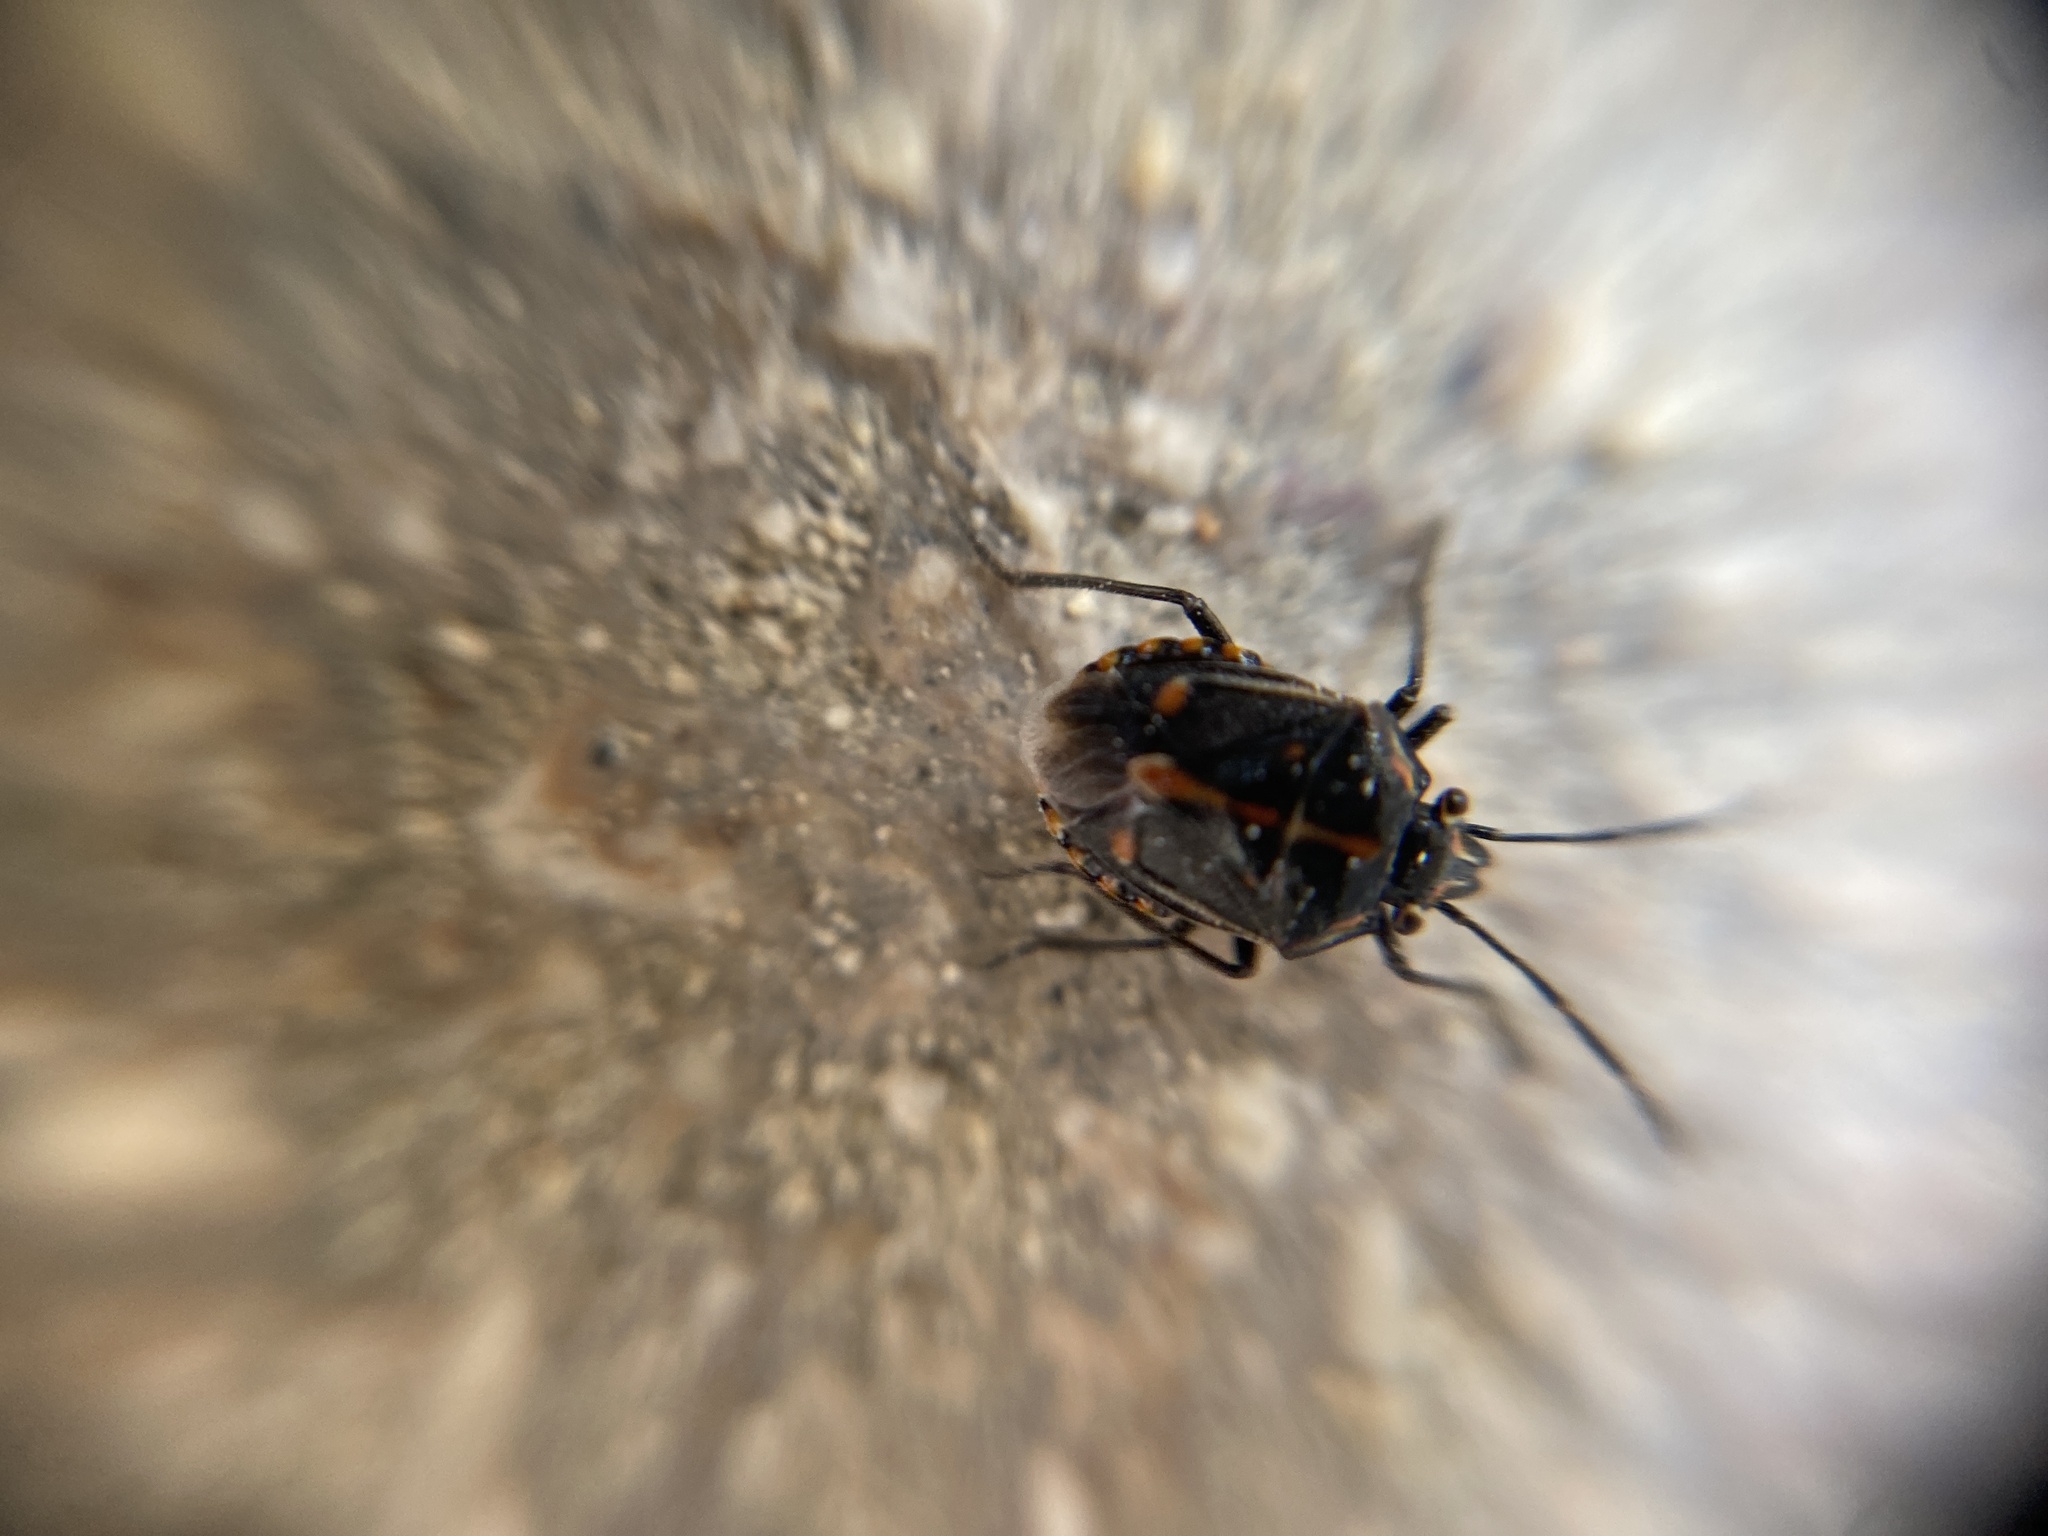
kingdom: Animalia
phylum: Arthropoda
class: Insecta
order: Hemiptera
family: Pentatomidae
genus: Bagrada
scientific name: Bagrada hilaris
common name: Bagrada bug
